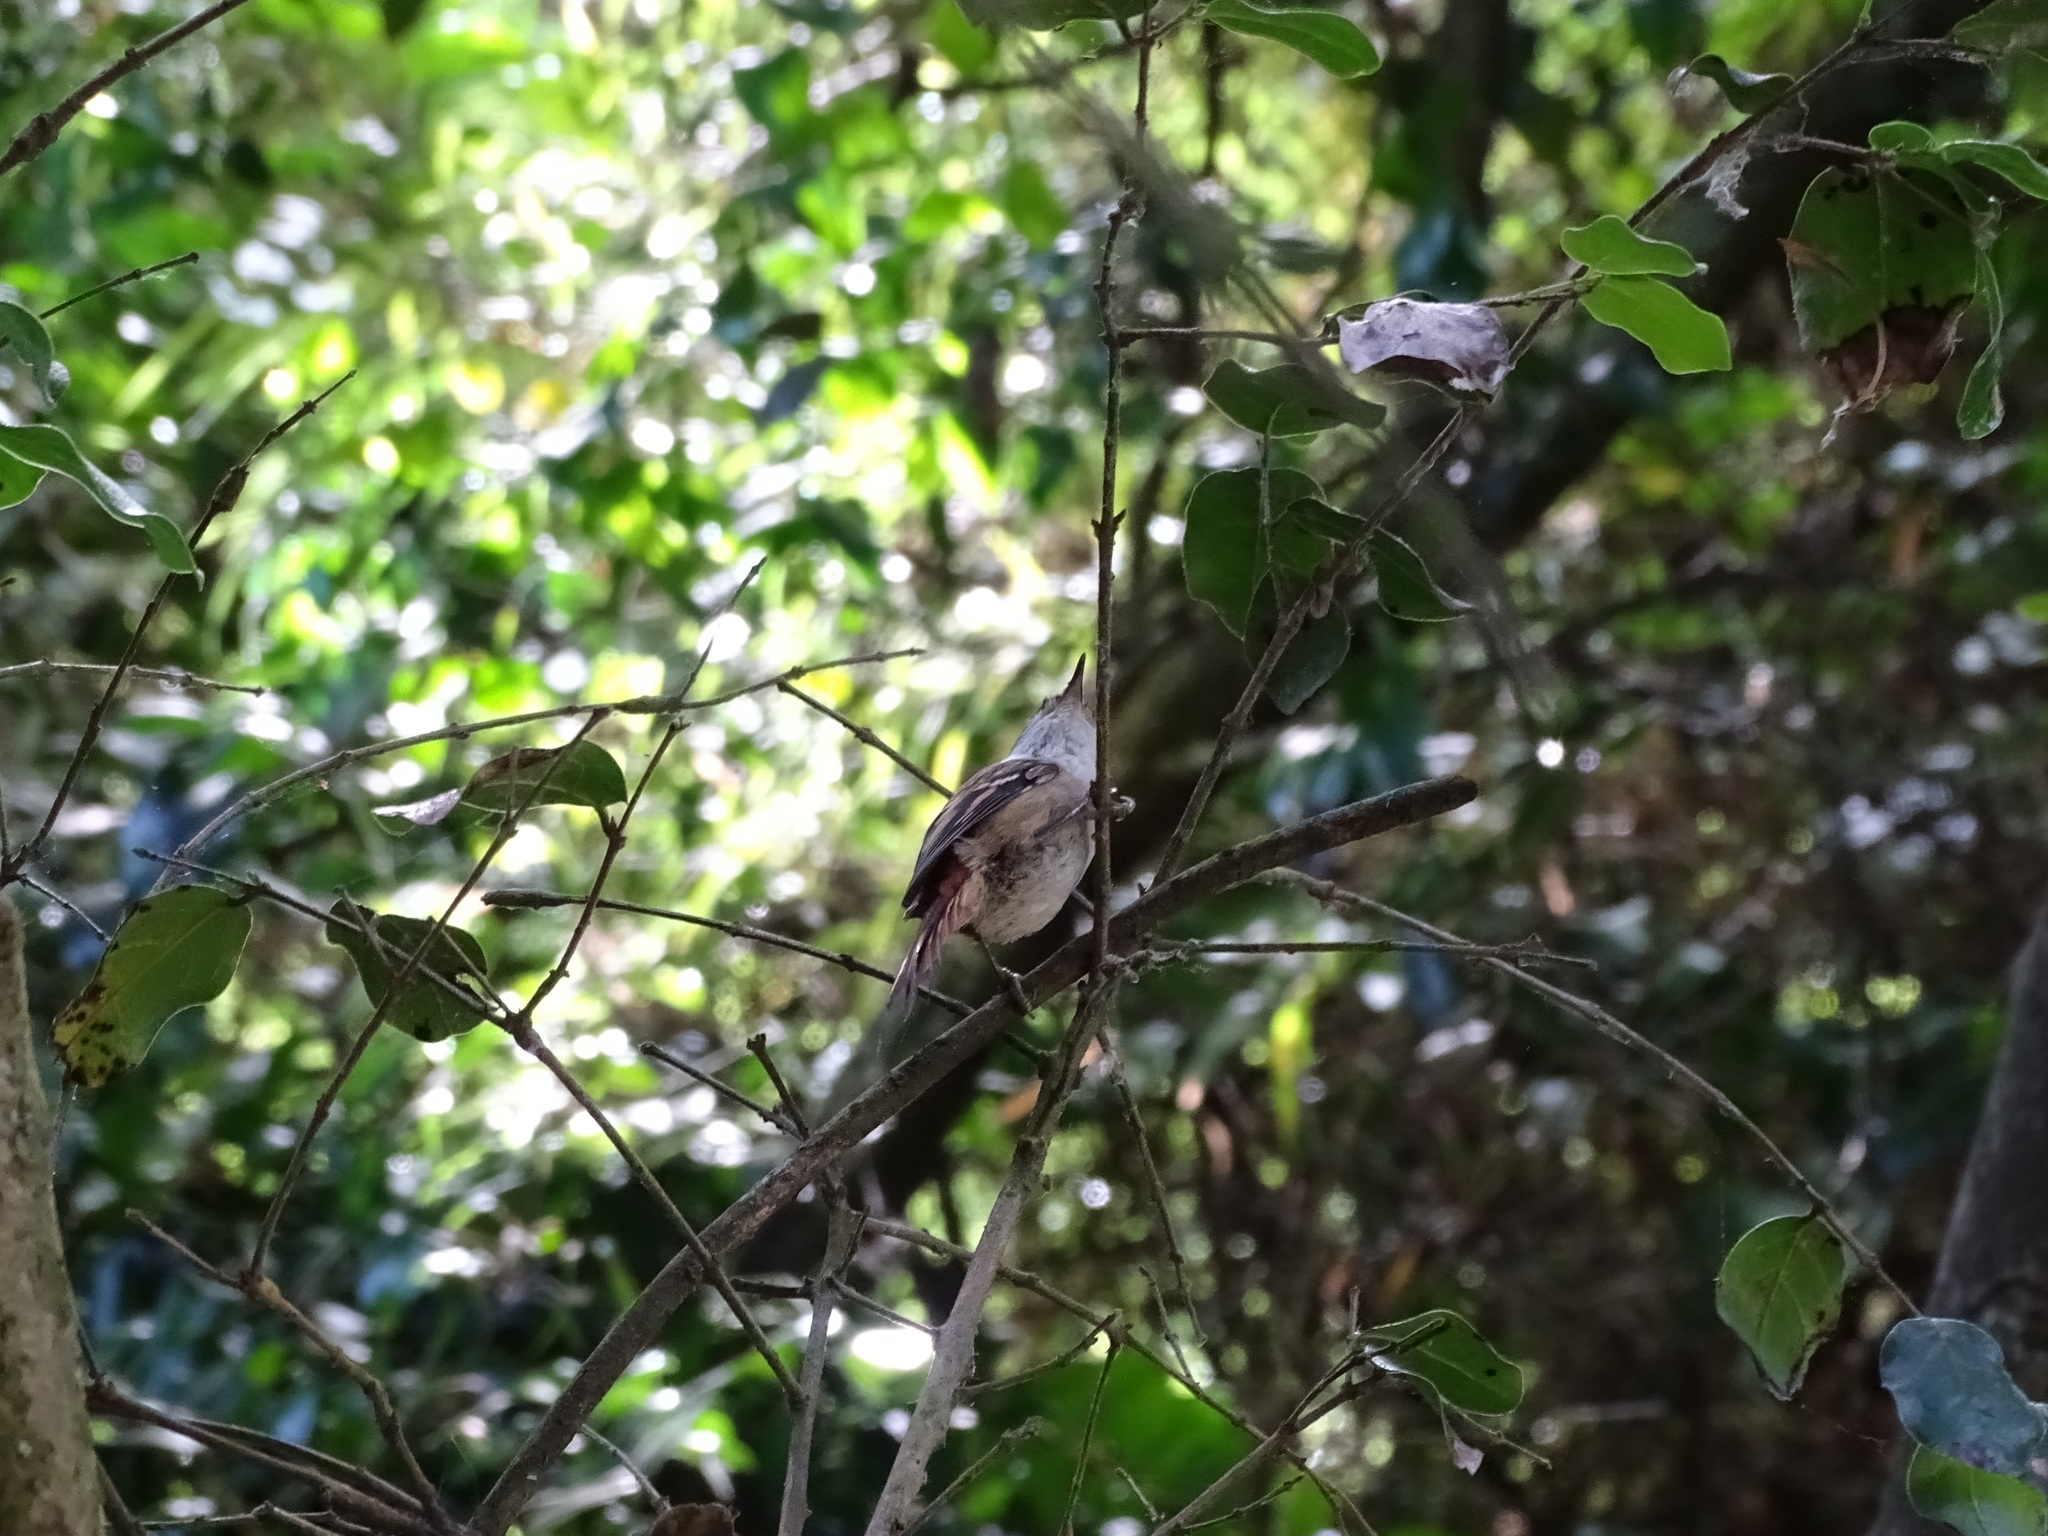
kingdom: Animalia
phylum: Chordata
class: Aves
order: Passeriformes
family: Furnariidae
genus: Aphrastura
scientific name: Aphrastura spinicauda
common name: Thorn-tailed rayadito
